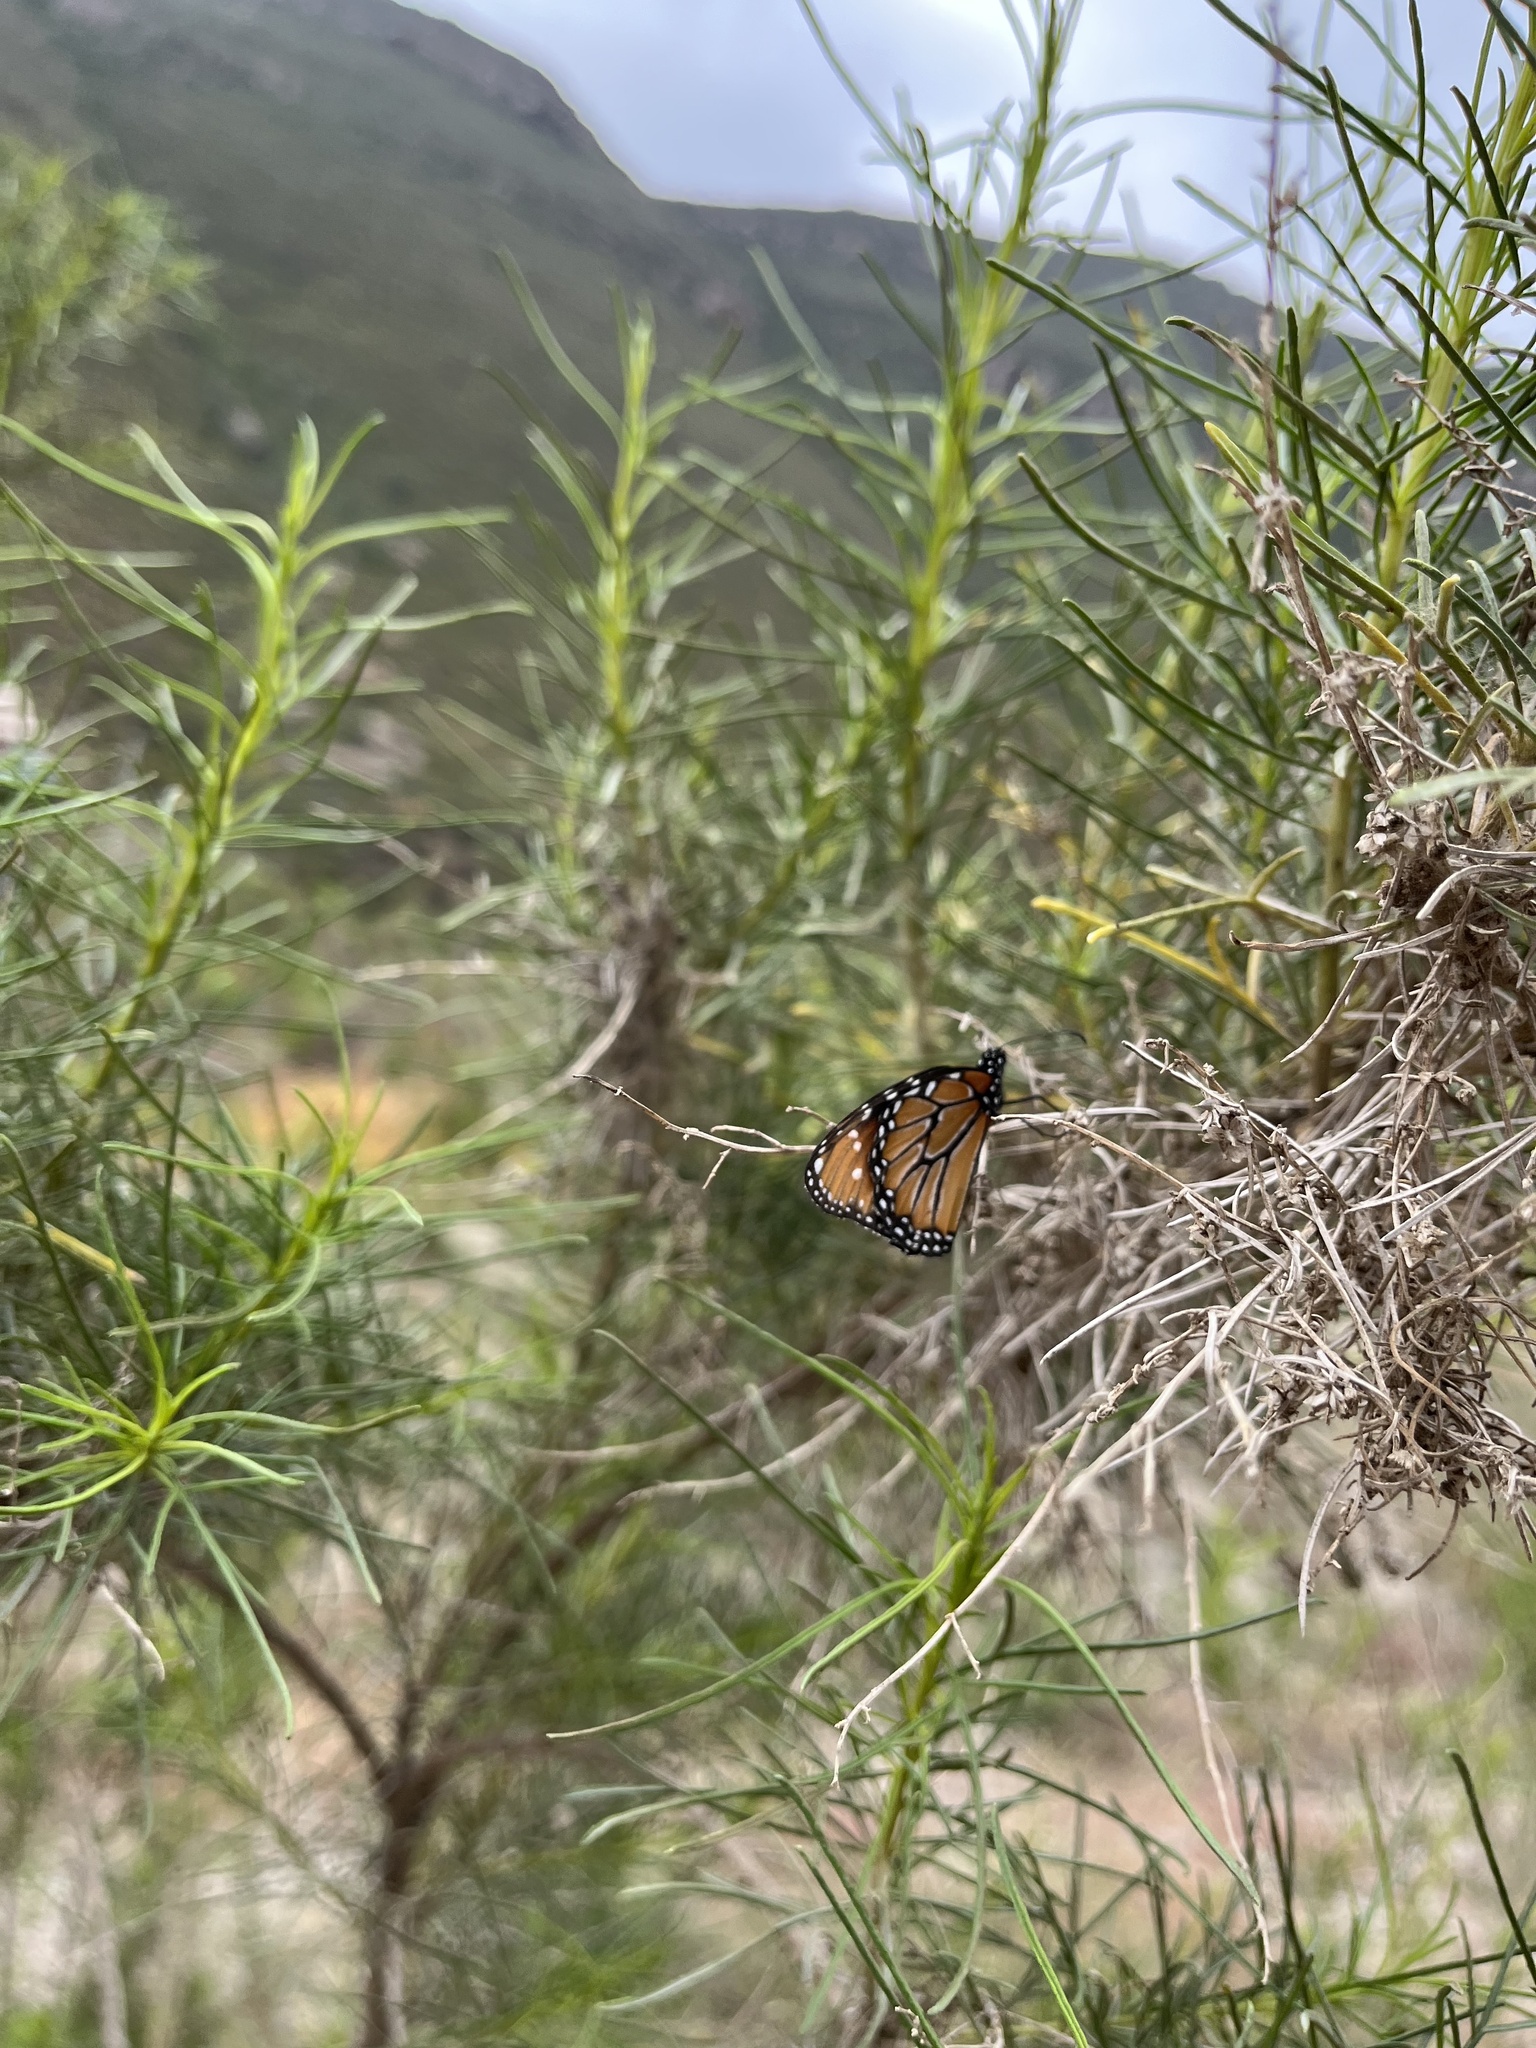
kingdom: Animalia
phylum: Arthropoda
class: Insecta
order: Lepidoptera
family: Nymphalidae
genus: Danaus
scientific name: Danaus gilippus
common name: Queen
